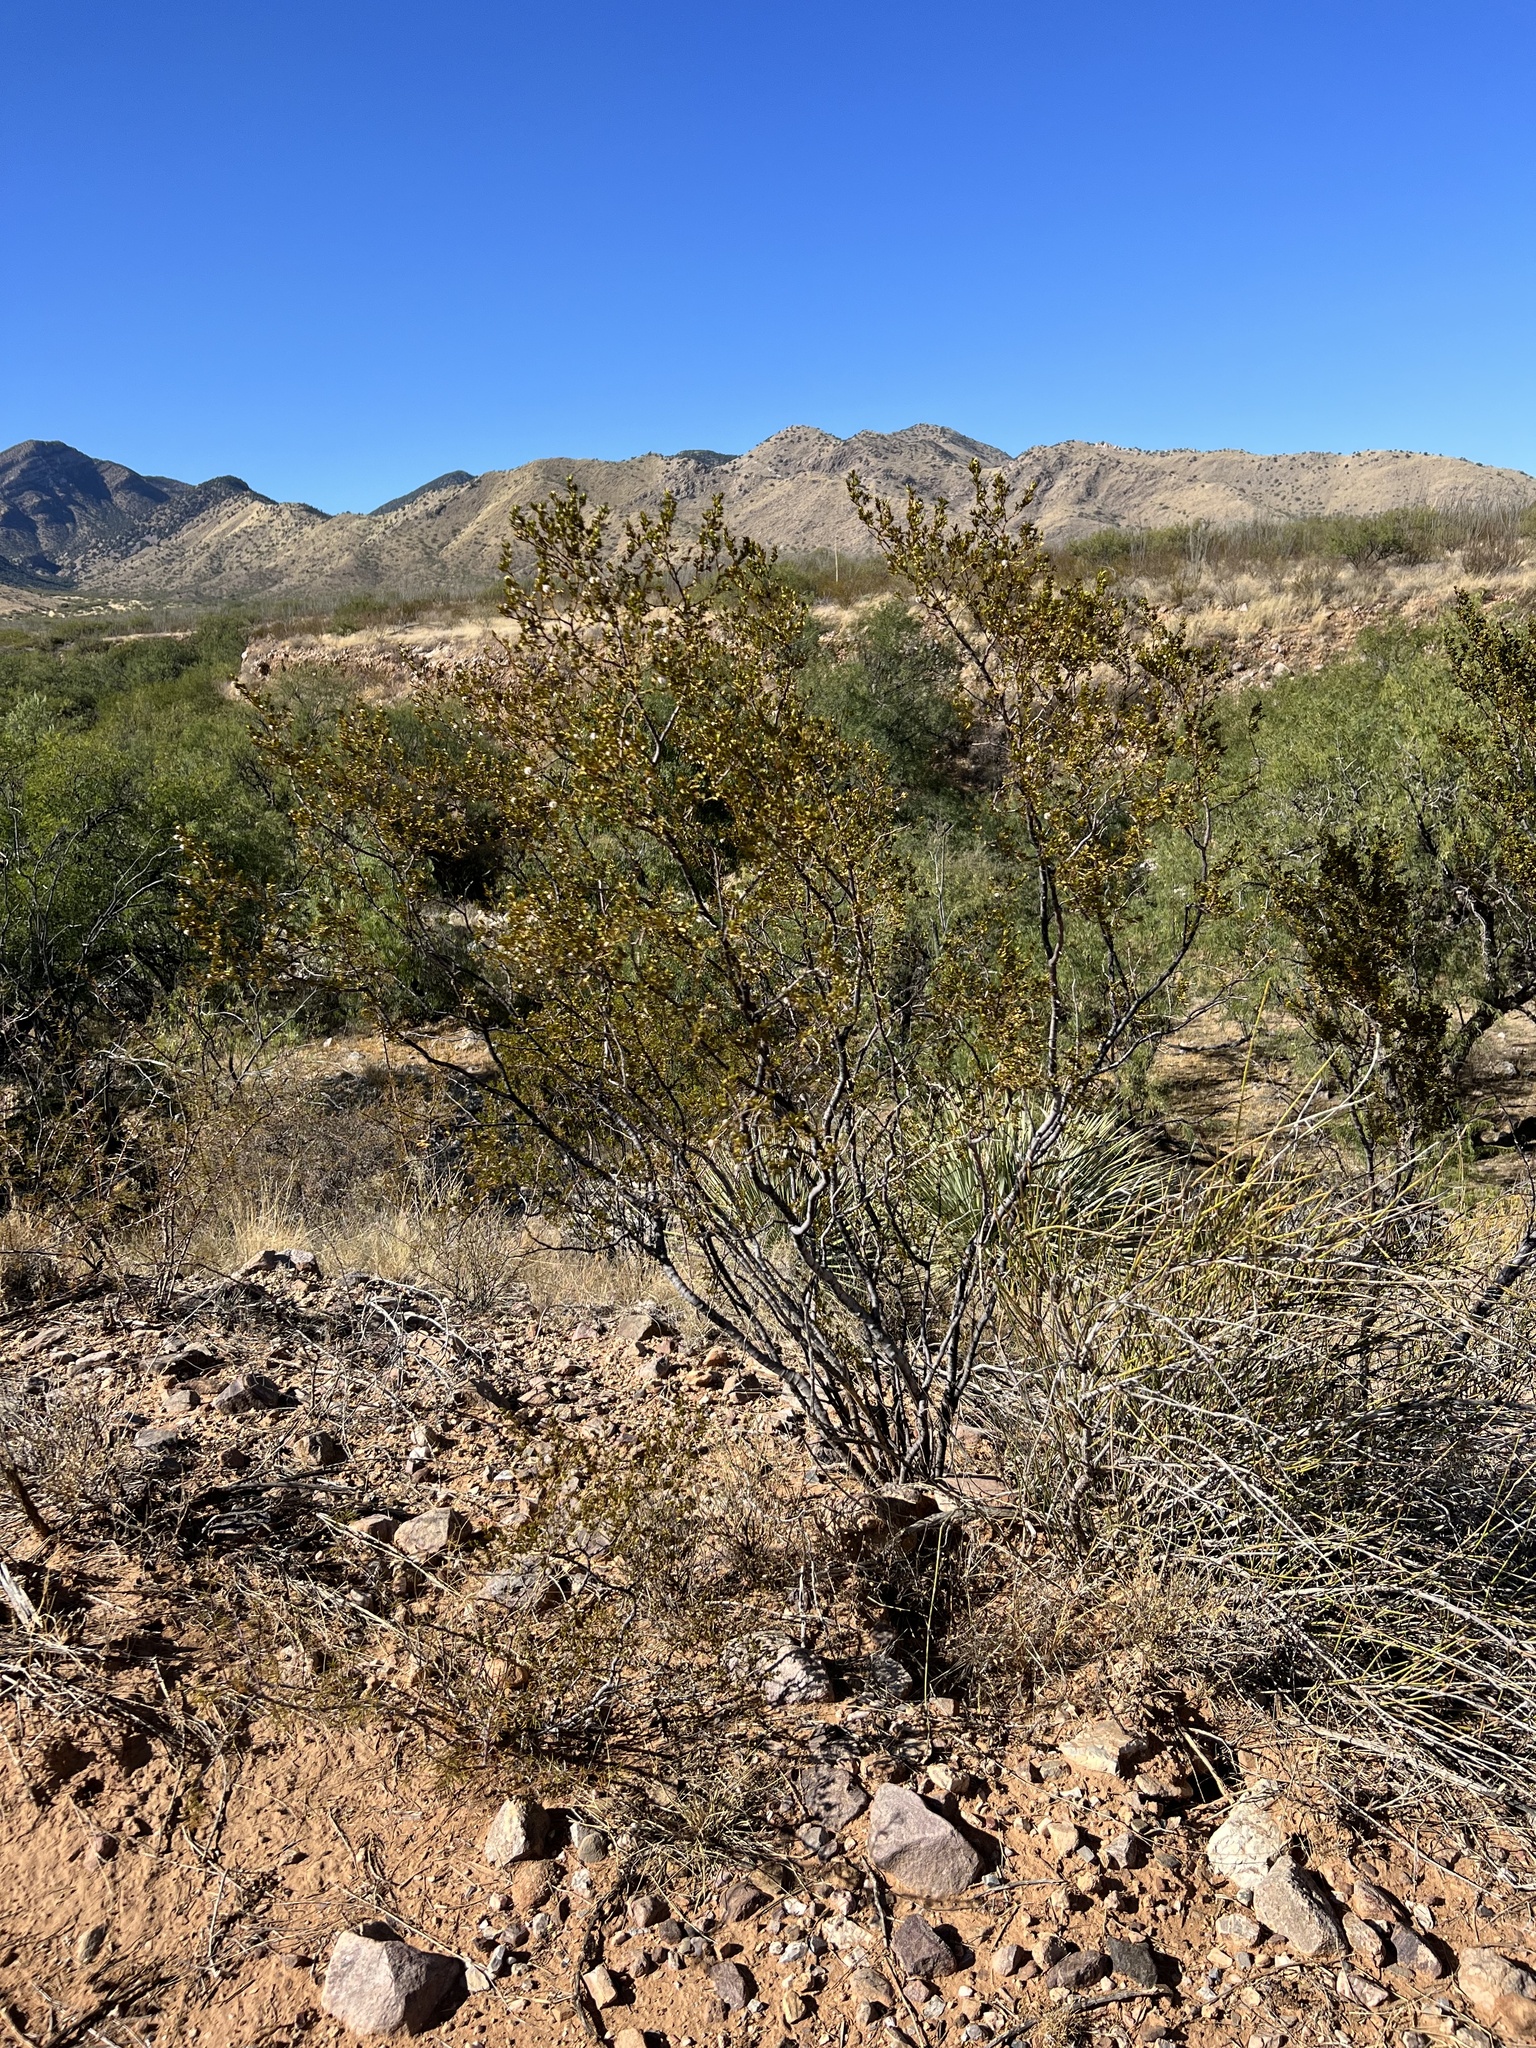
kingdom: Plantae
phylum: Tracheophyta
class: Magnoliopsida
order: Zygophyllales
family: Zygophyllaceae
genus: Larrea
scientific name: Larrea tridentata
